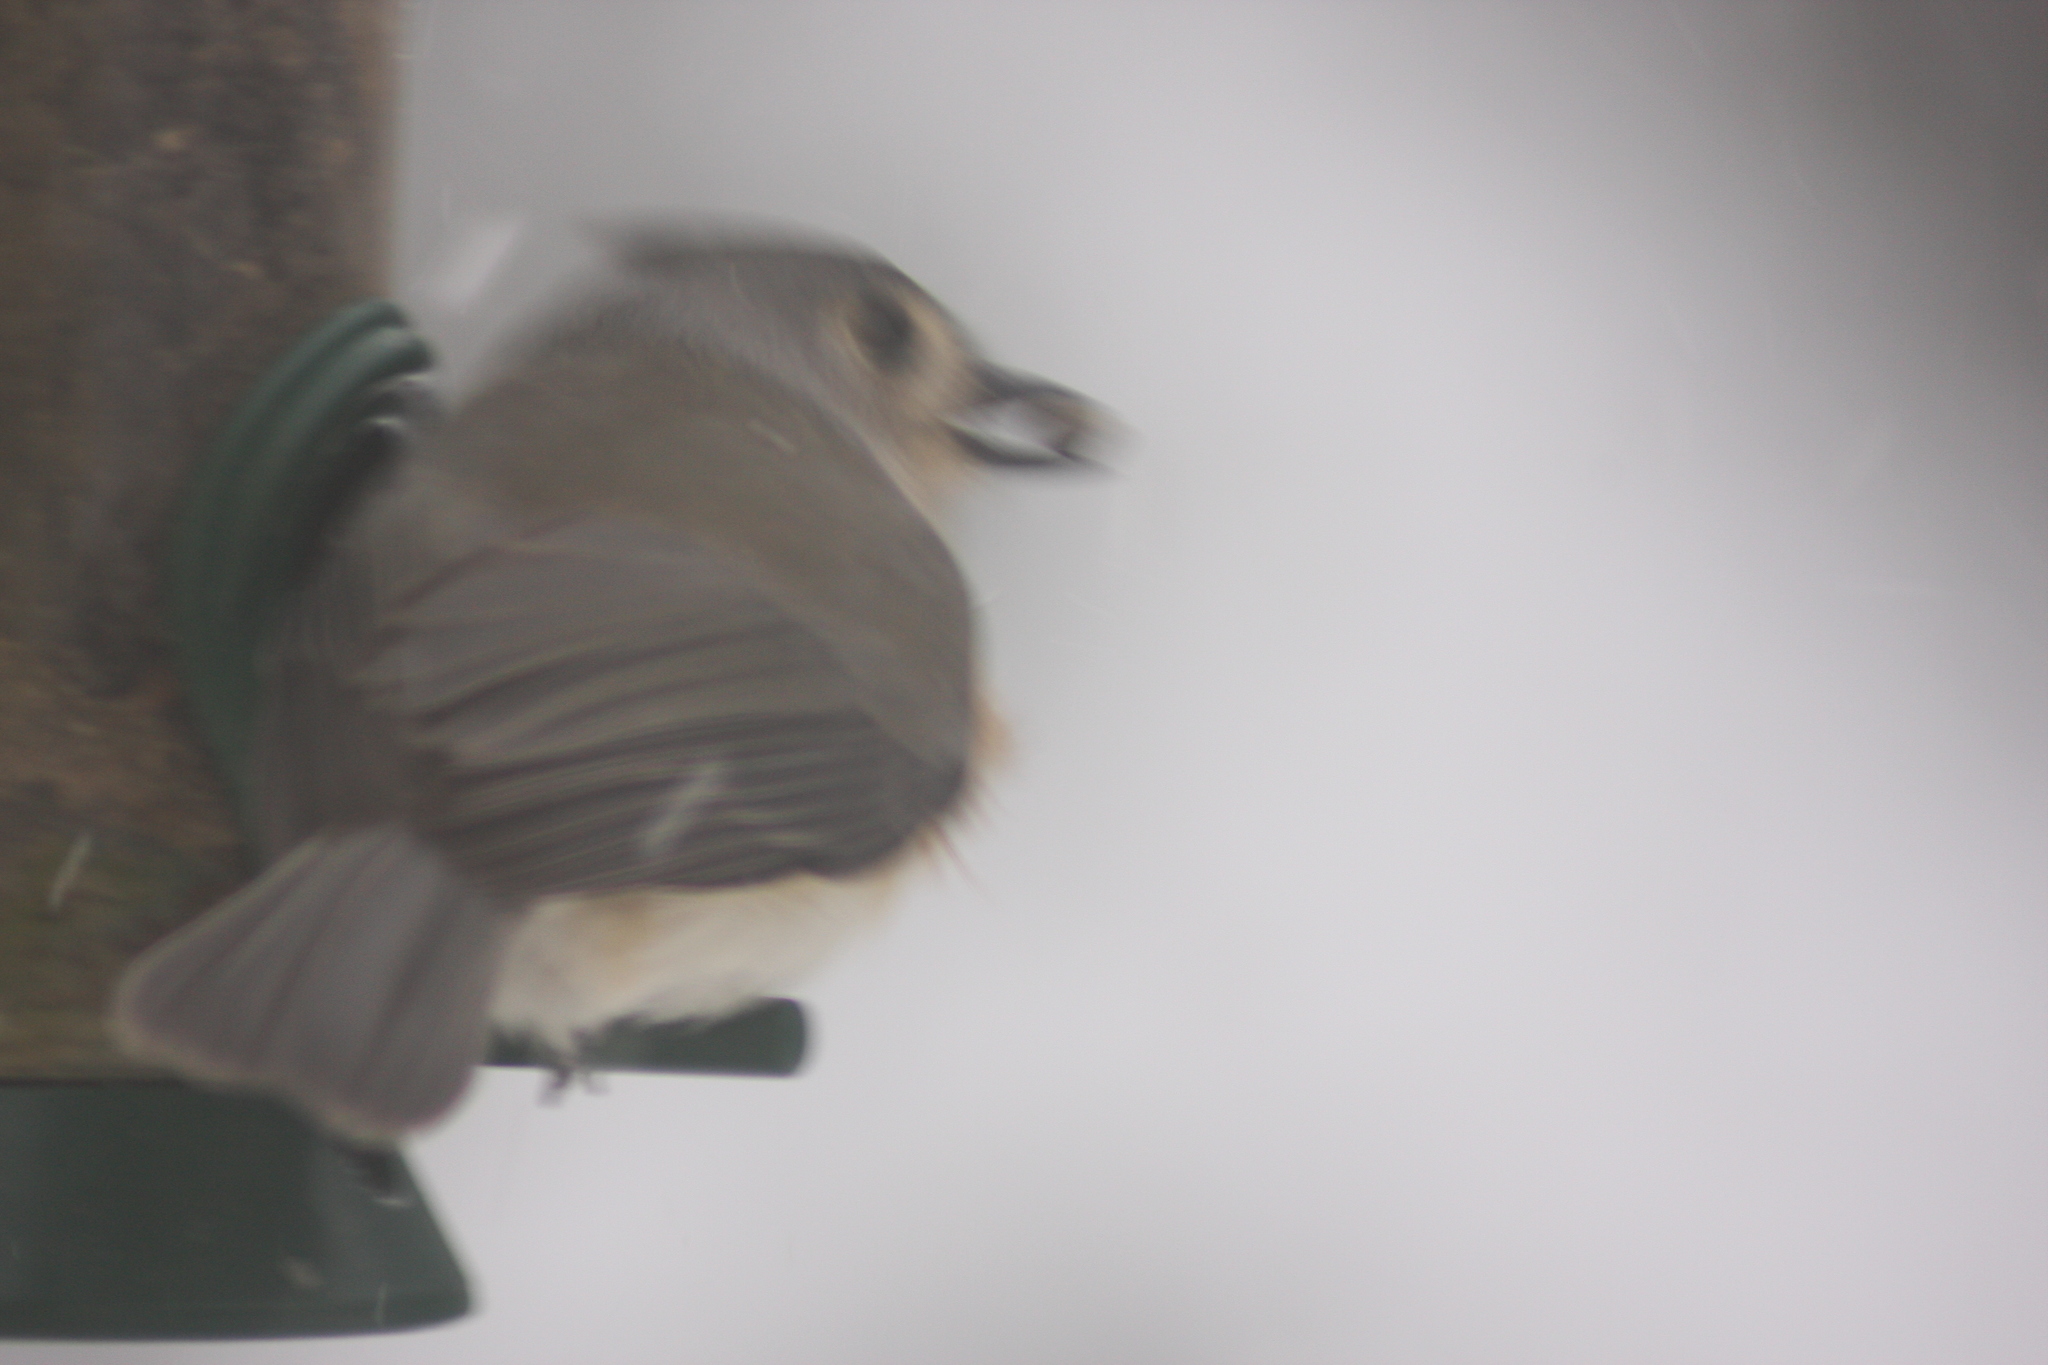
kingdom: Animalia
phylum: Chordata
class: Aves
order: Passeriformes
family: Paridae
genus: Baeolophus
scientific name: Baeolophus bicolor
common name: Tufted titmouse
